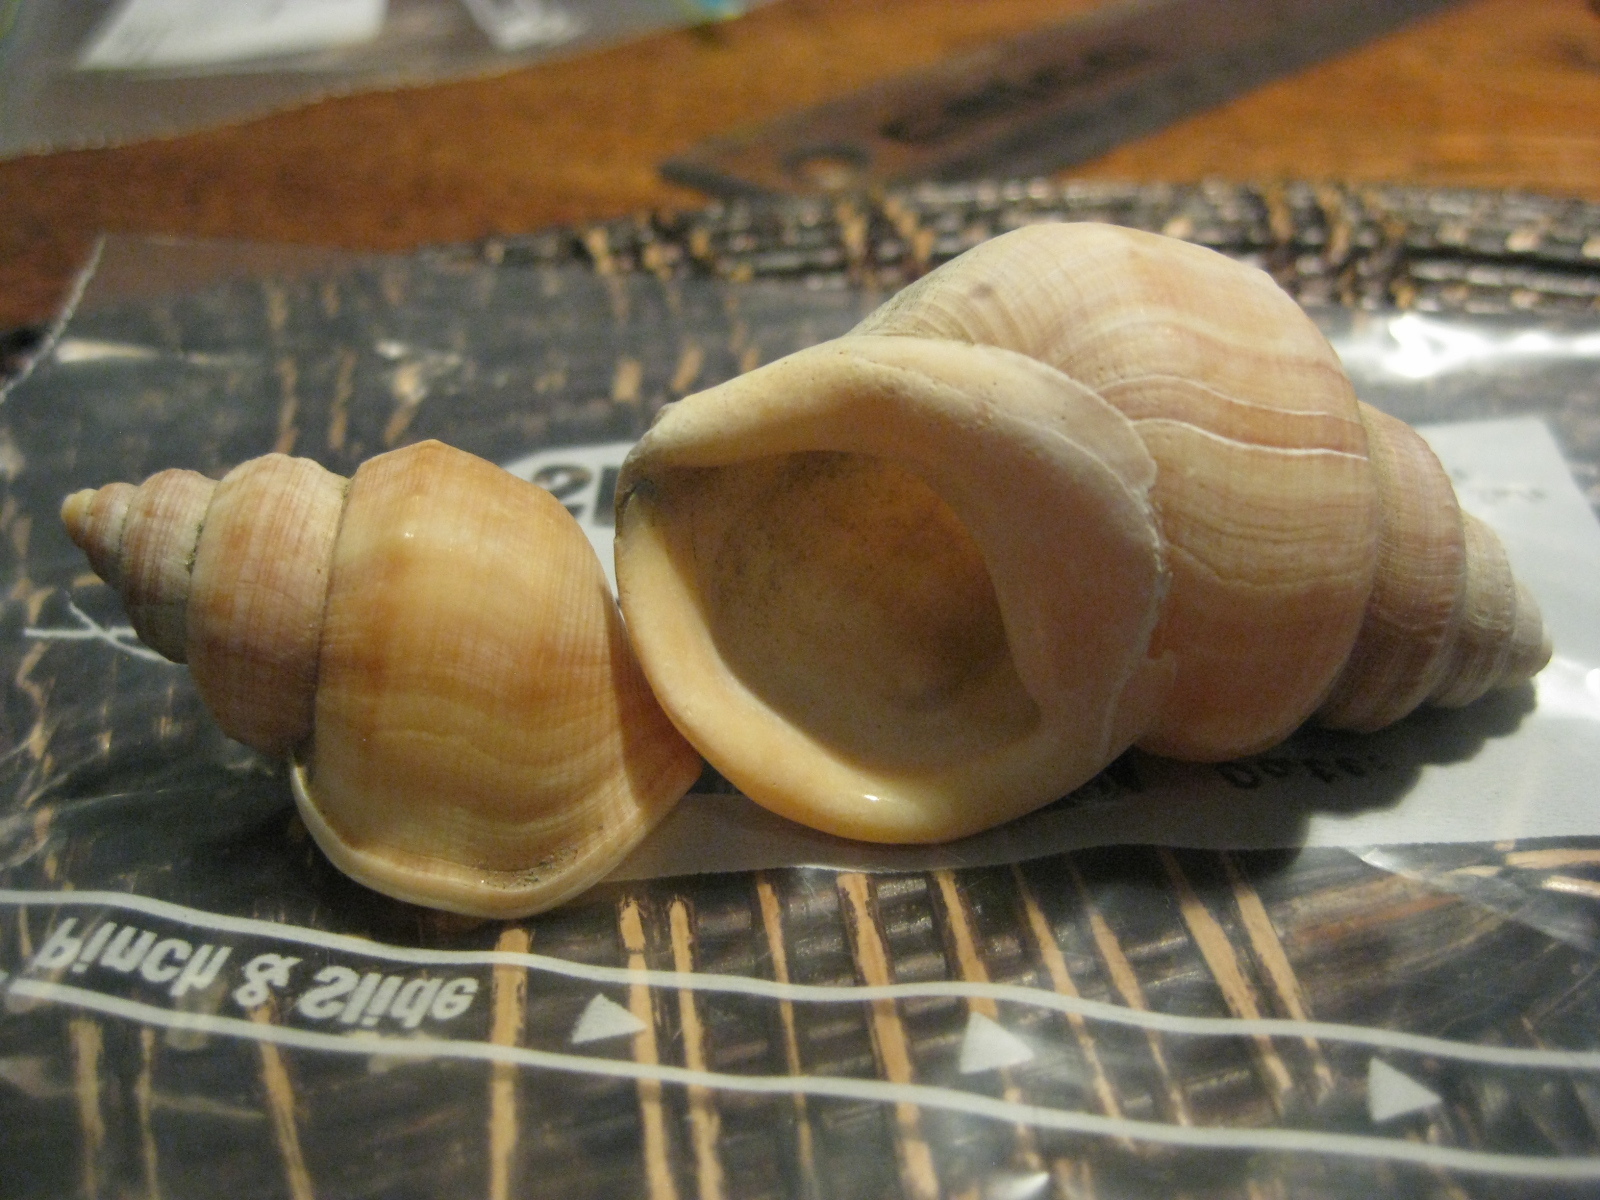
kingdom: Animalia
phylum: Mollusca
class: Gastropoda
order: Littorinimorpha
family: Struthiolariidae
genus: Pelicaria
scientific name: Pelicaria vermis
